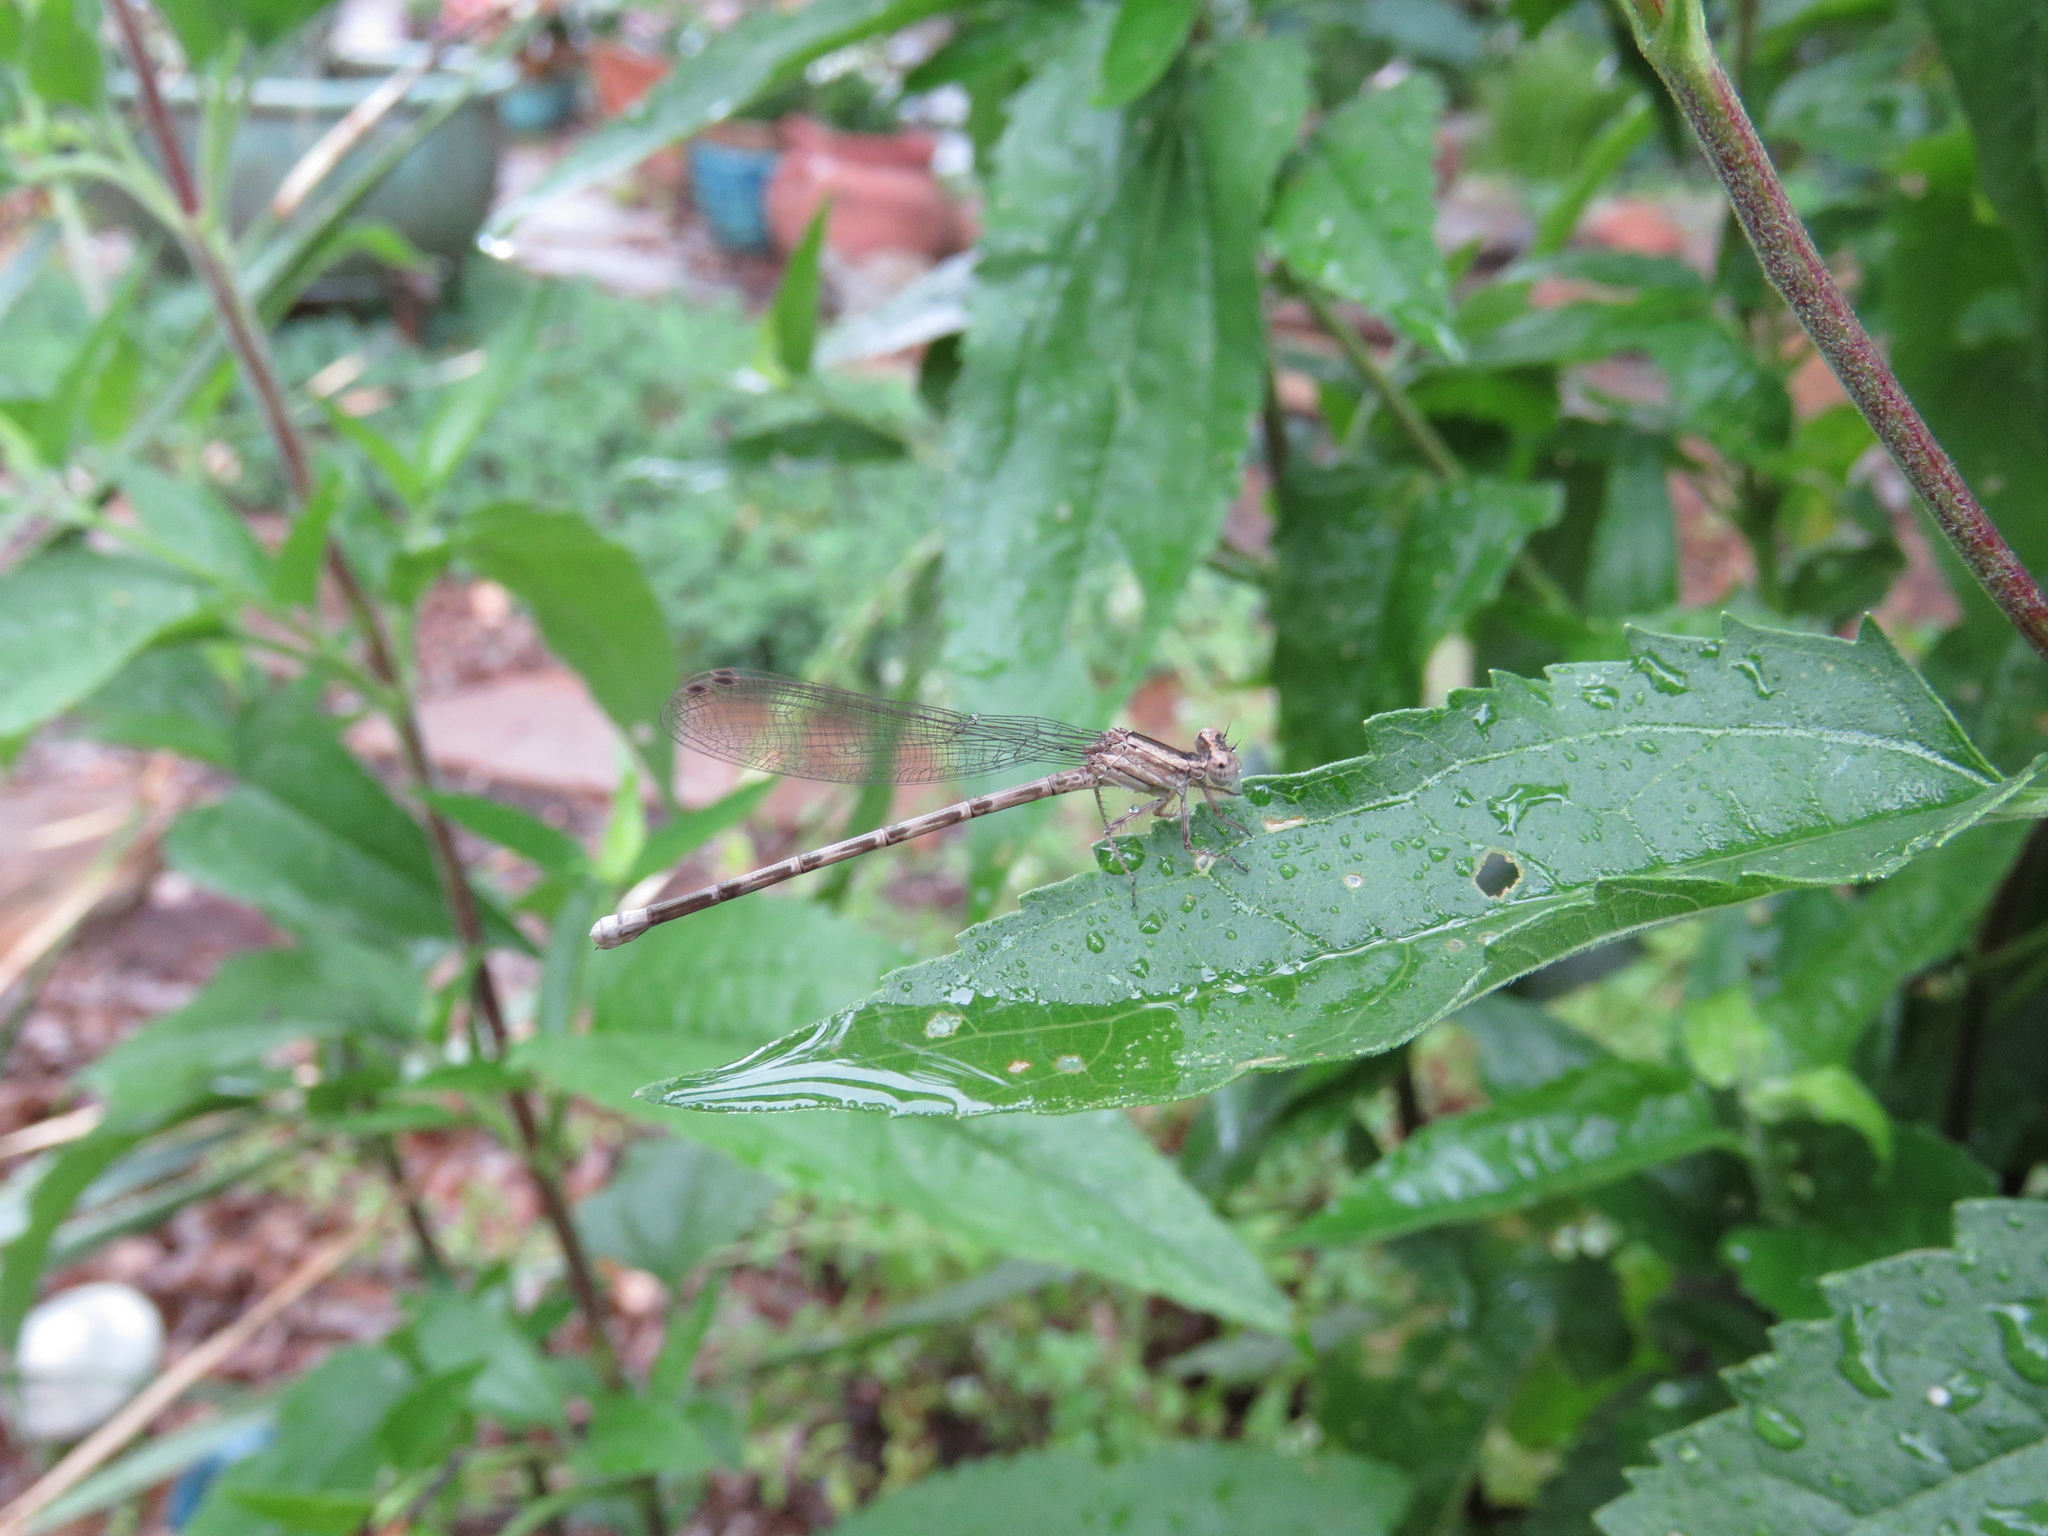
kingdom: Animalia
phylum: Arthropoda
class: Insecta
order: Odonata
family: Coenagrionidae
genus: Argia
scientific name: Argia immunda
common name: Kiowa dancer
